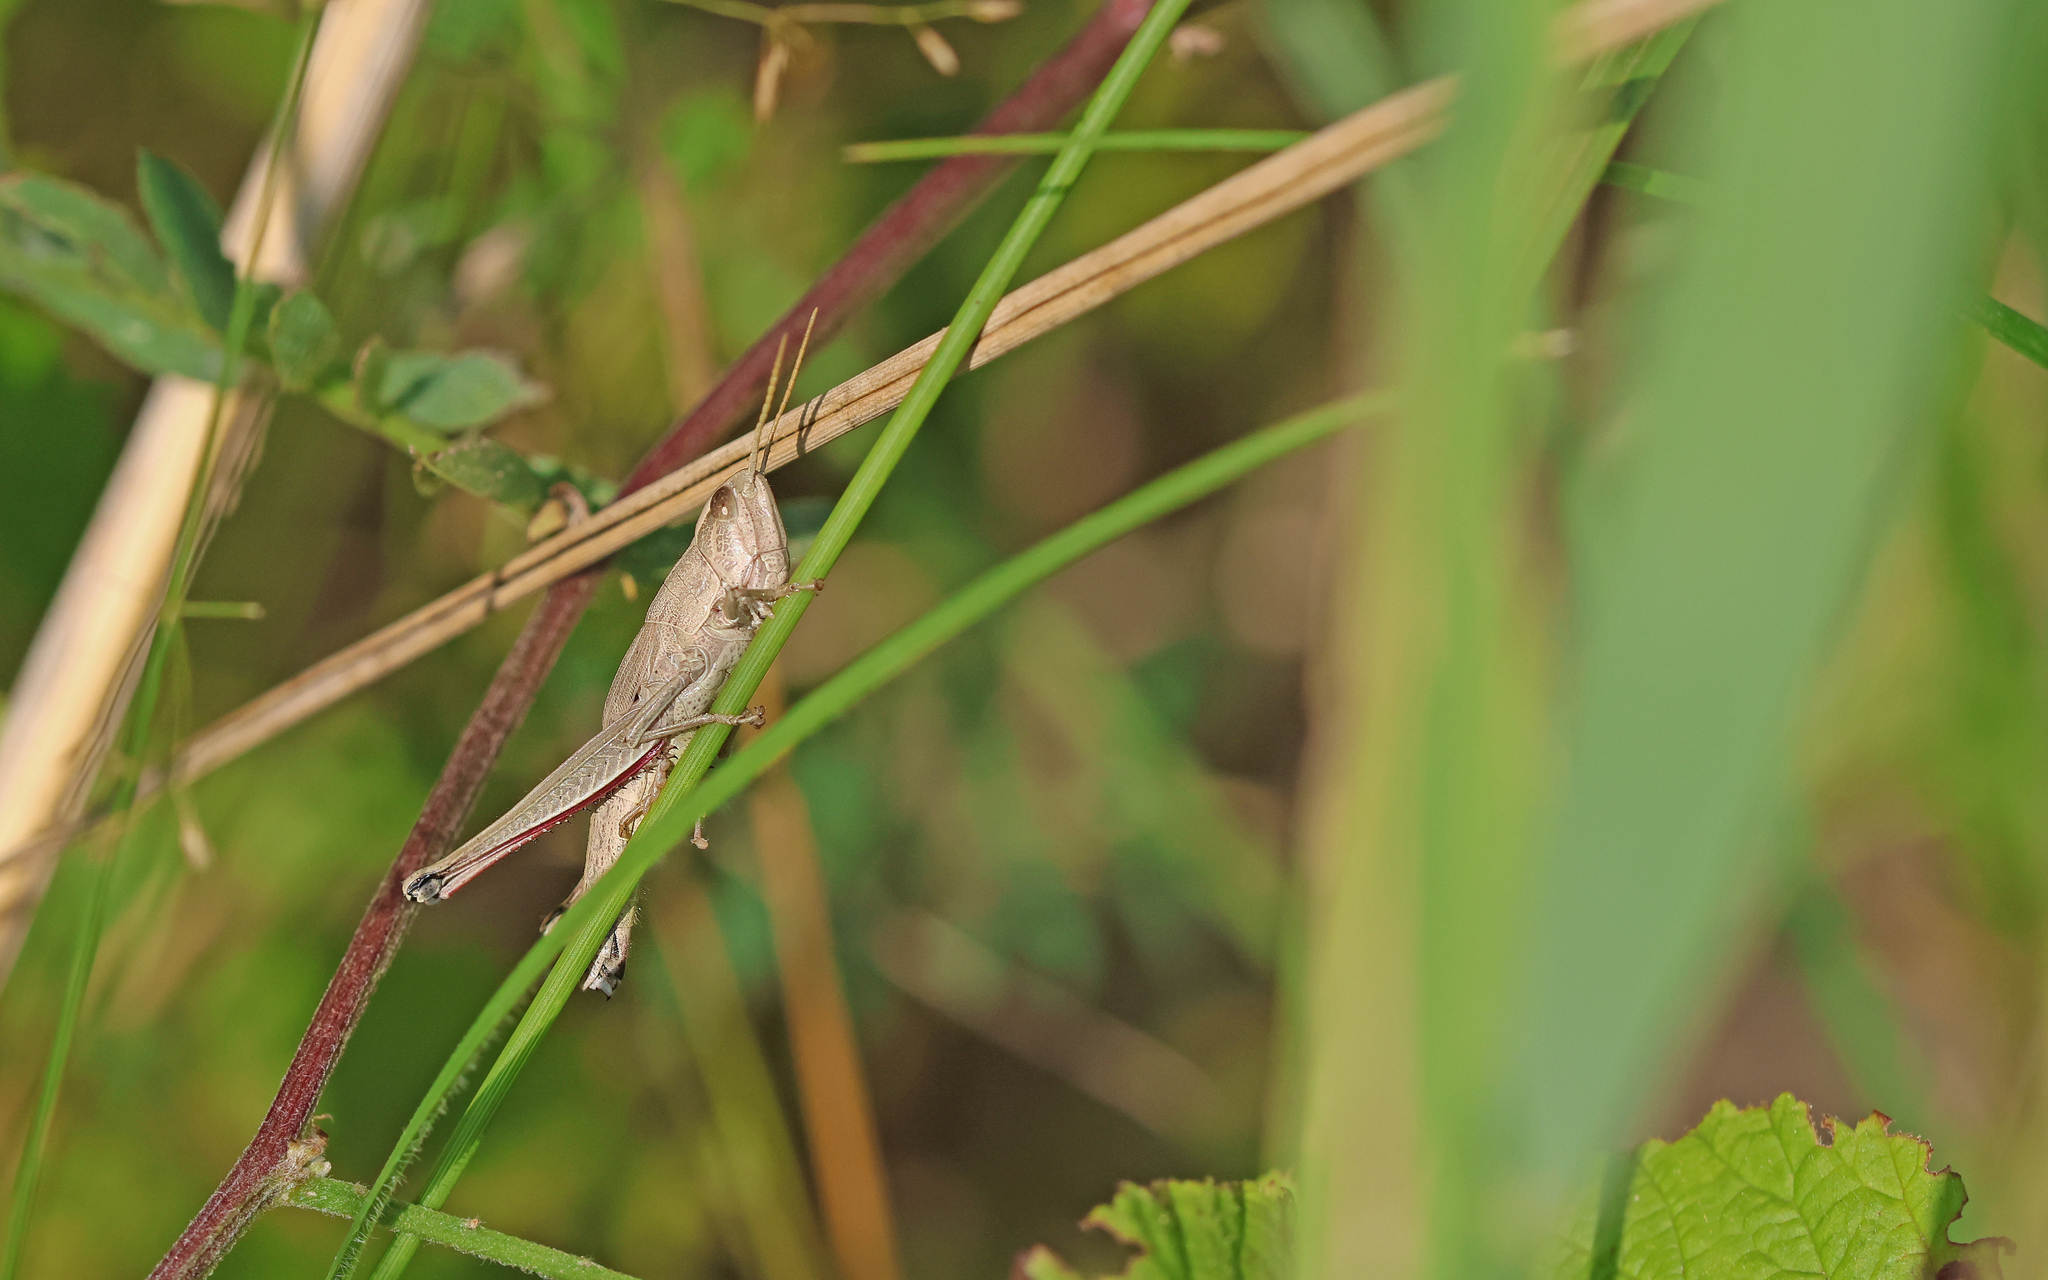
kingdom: Animalia
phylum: Arthropoda
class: Insecta
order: Orthoptera
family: Acrididae
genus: Chrysochraon
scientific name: Chrysochraon dispar
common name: Large gold grasshopper
